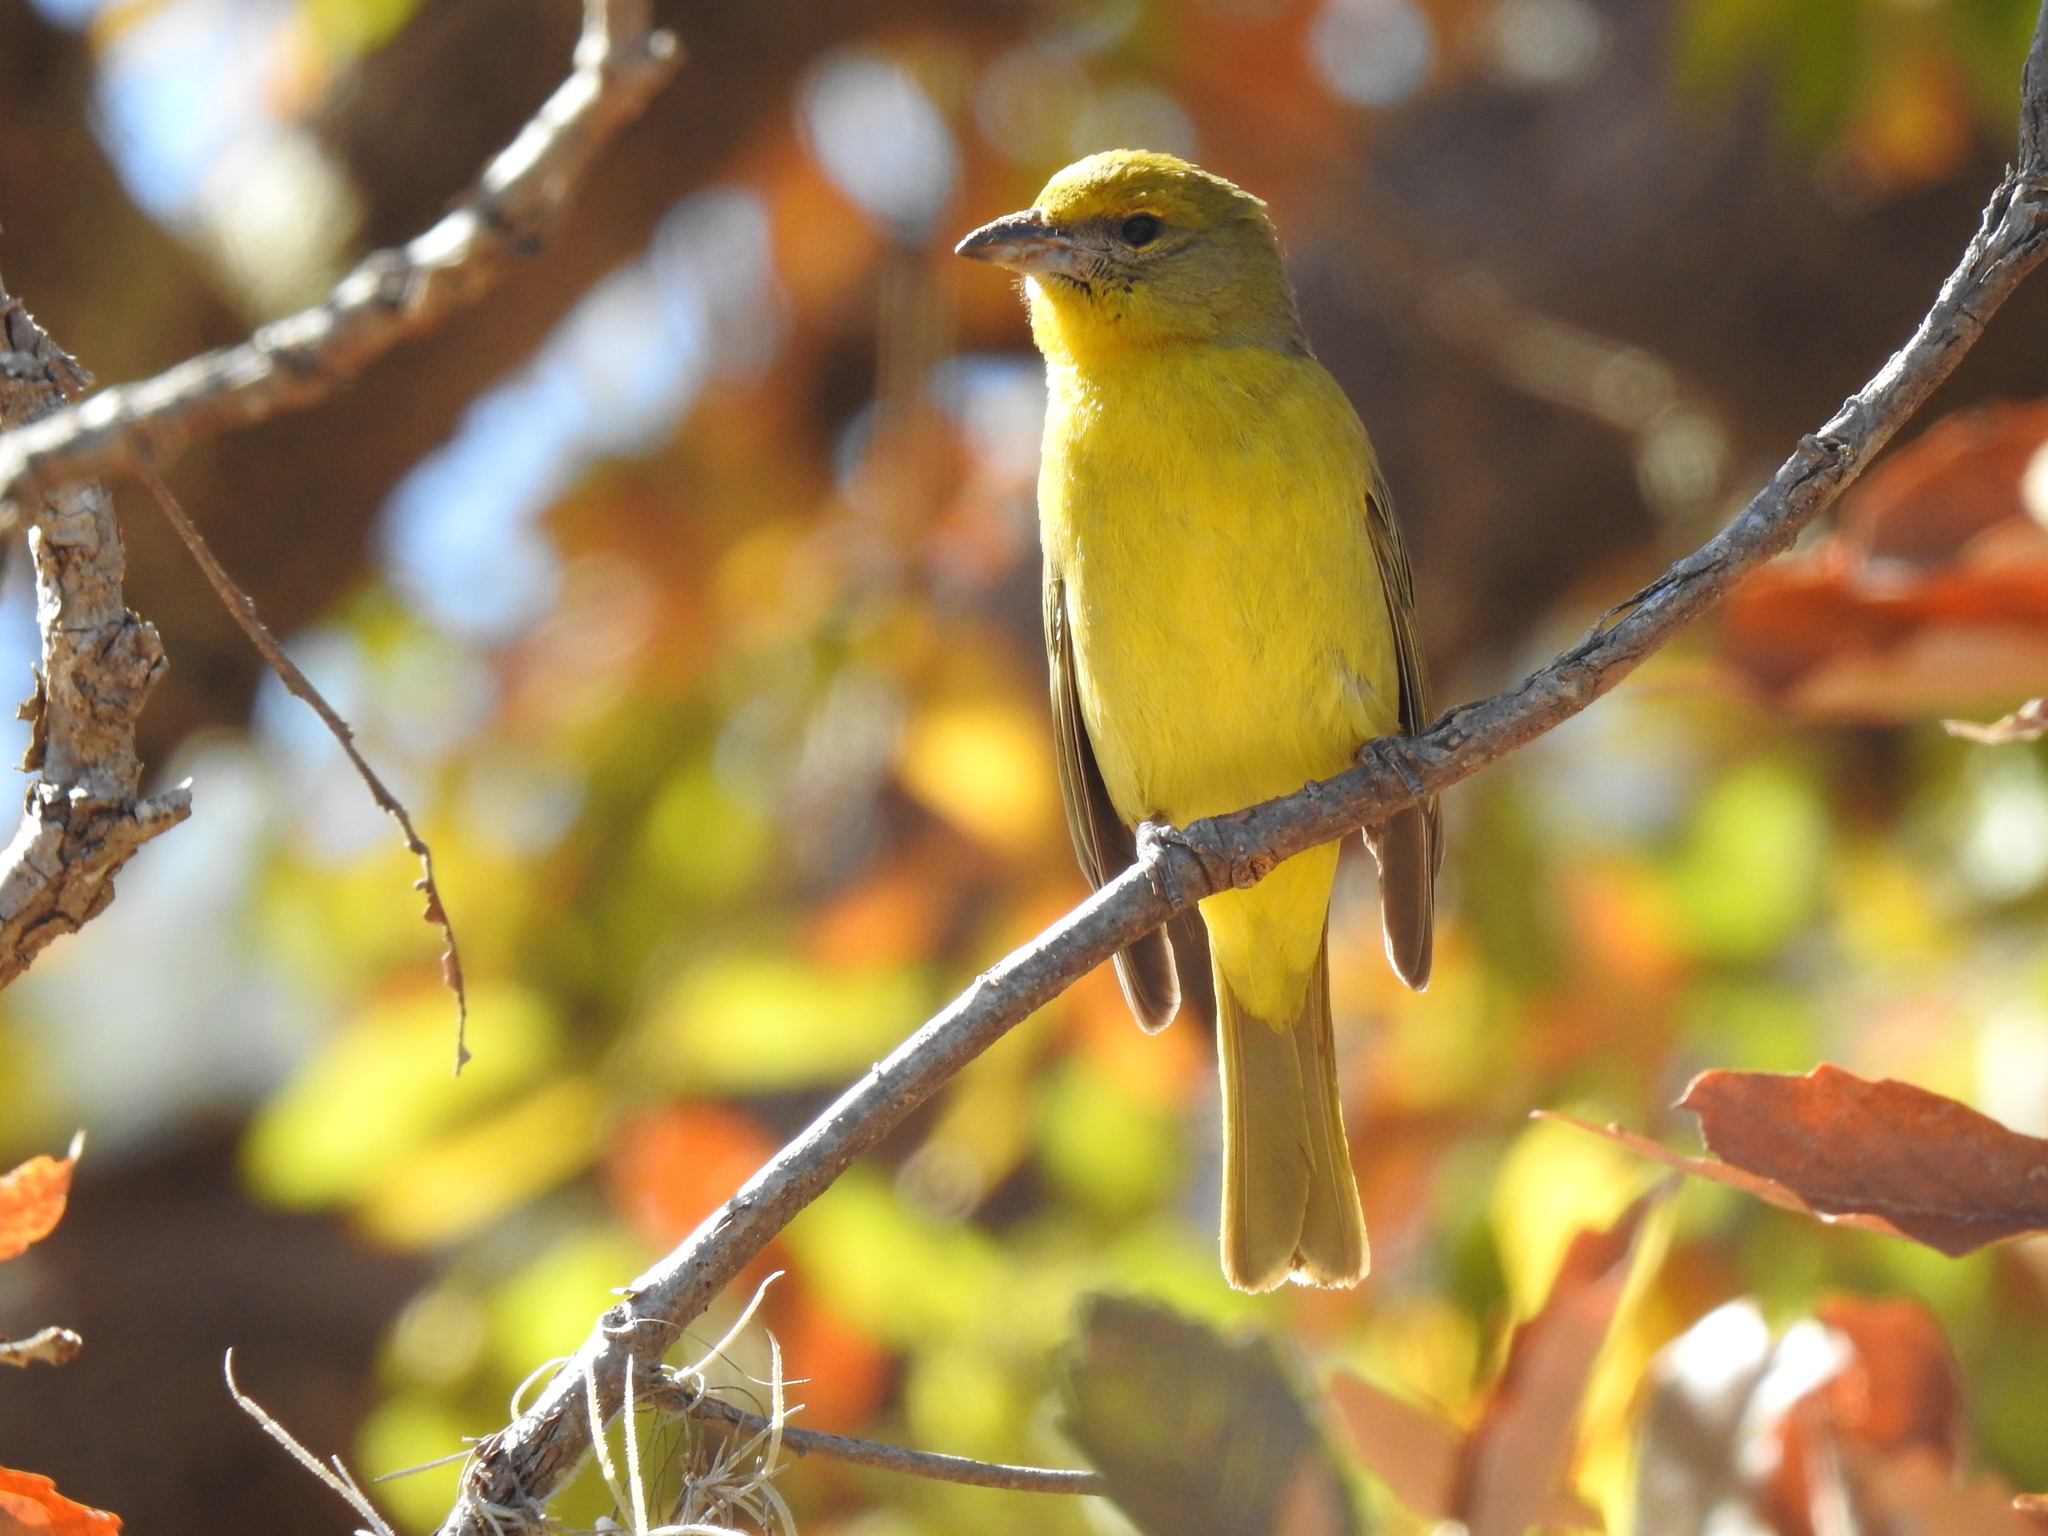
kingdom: Animalia
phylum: Chordata
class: Aves
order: Passeriformes
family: Cardinalidae
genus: Piranga
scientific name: Piranga flava
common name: Red tanager
